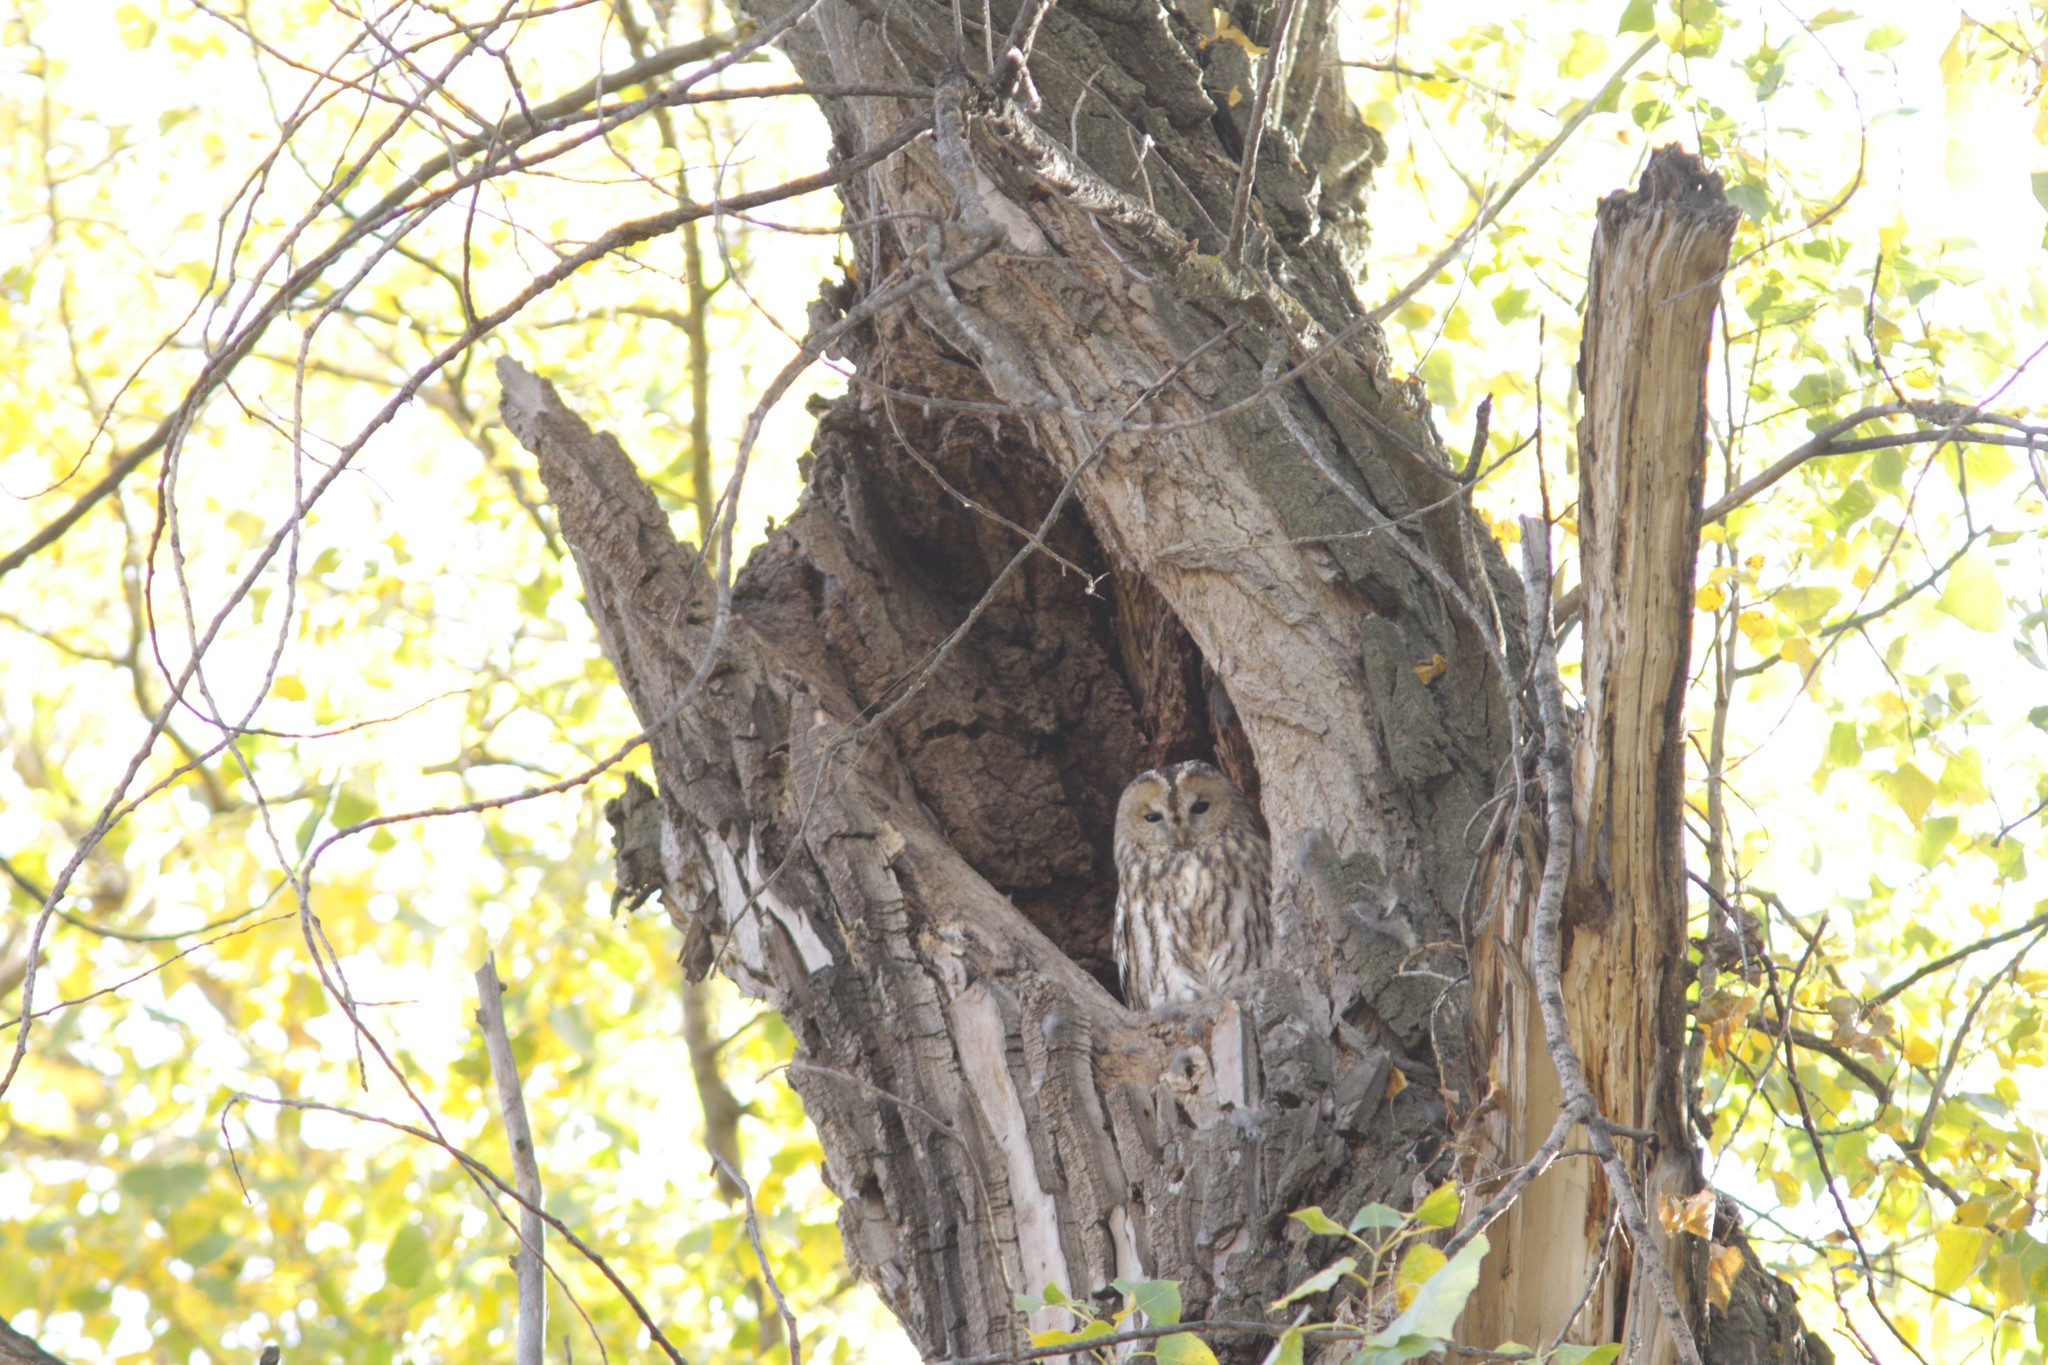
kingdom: Animalia
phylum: Chordata
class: Aves
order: Strigiformes
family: Strigidae
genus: Strix
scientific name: Strix aluco
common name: Tawny owl
